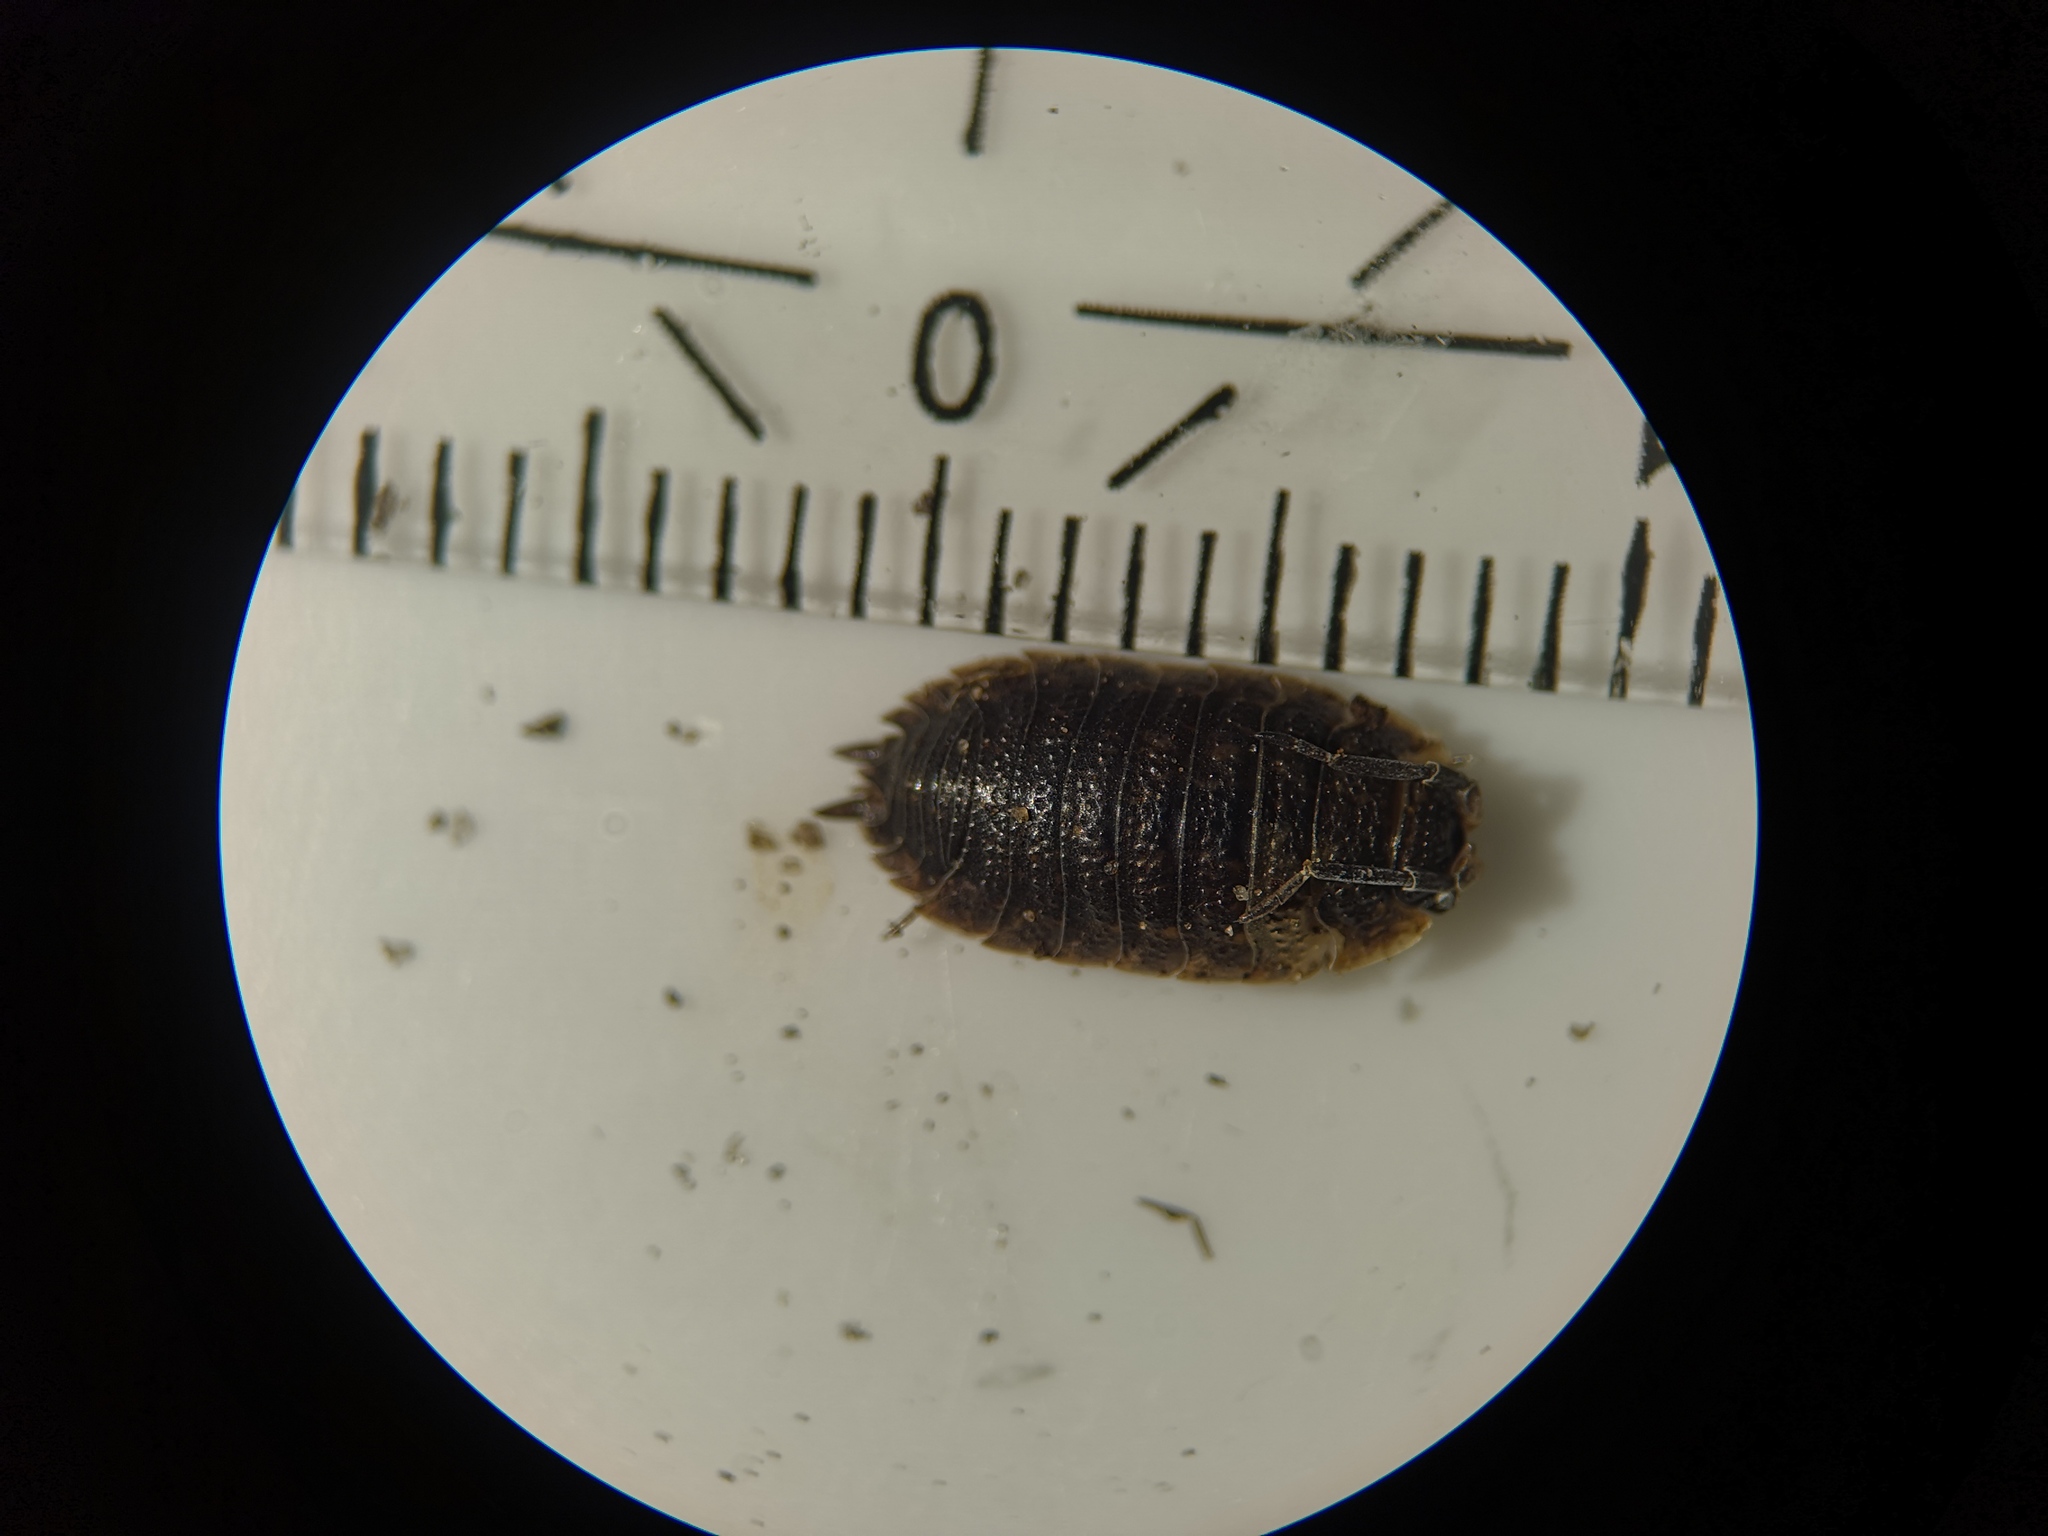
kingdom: Animalia
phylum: Arthropoda
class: Malacostraca
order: Isopoda
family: Porcellionidae
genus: Porcellio
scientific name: Porcellio scaber
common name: Common rough woodlouse
